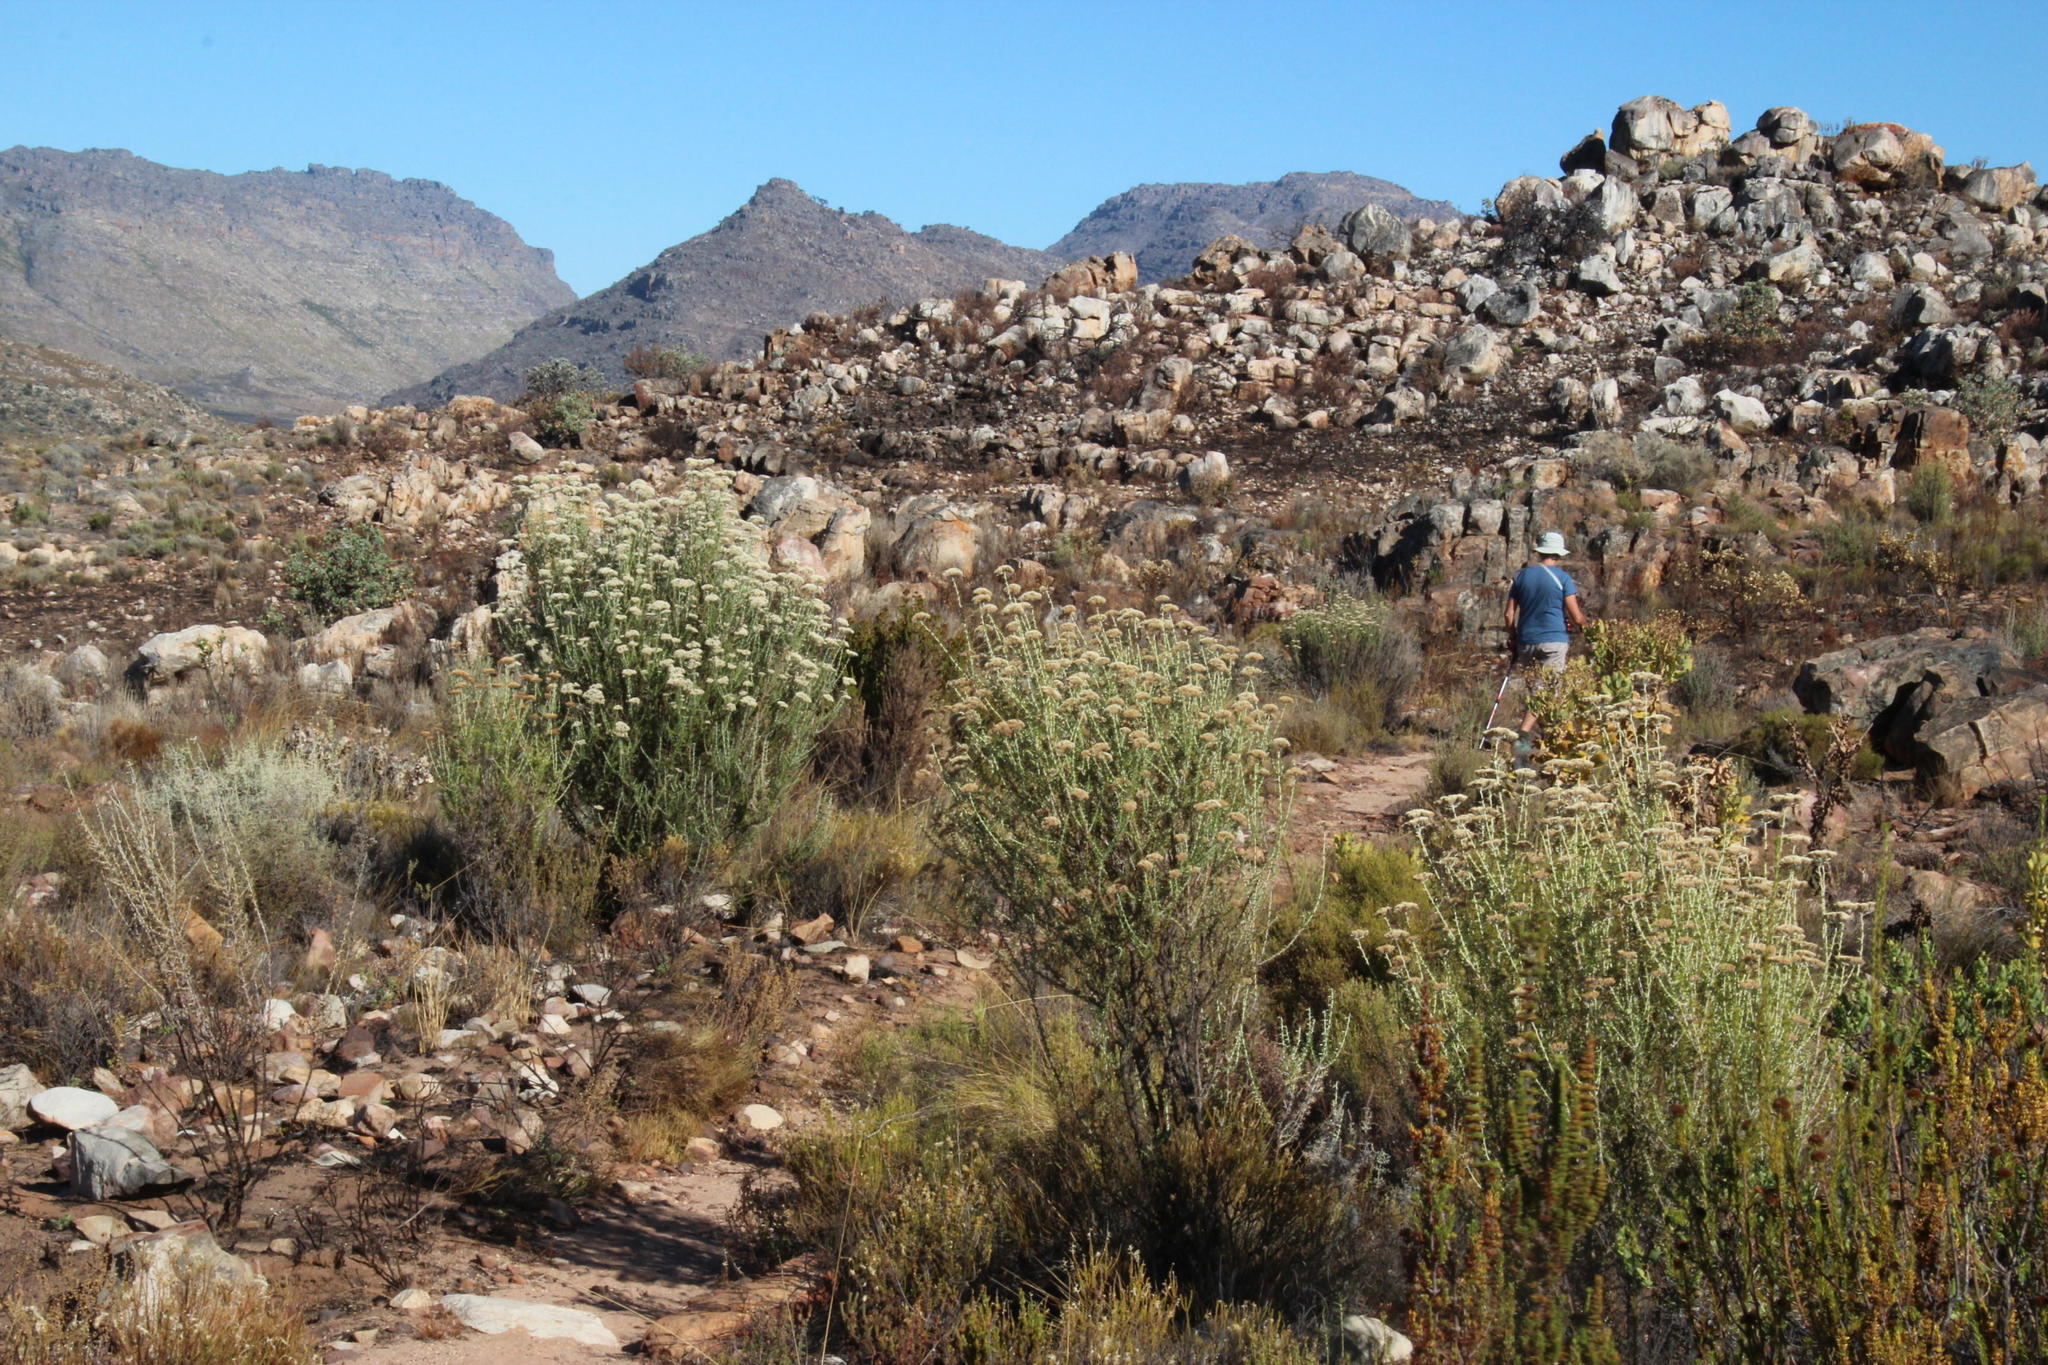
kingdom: Plantae
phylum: Tracheophyta
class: Magnoliopsida
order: Asterales
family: Asteraceae
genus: Metalasia
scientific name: Metalasia densa
